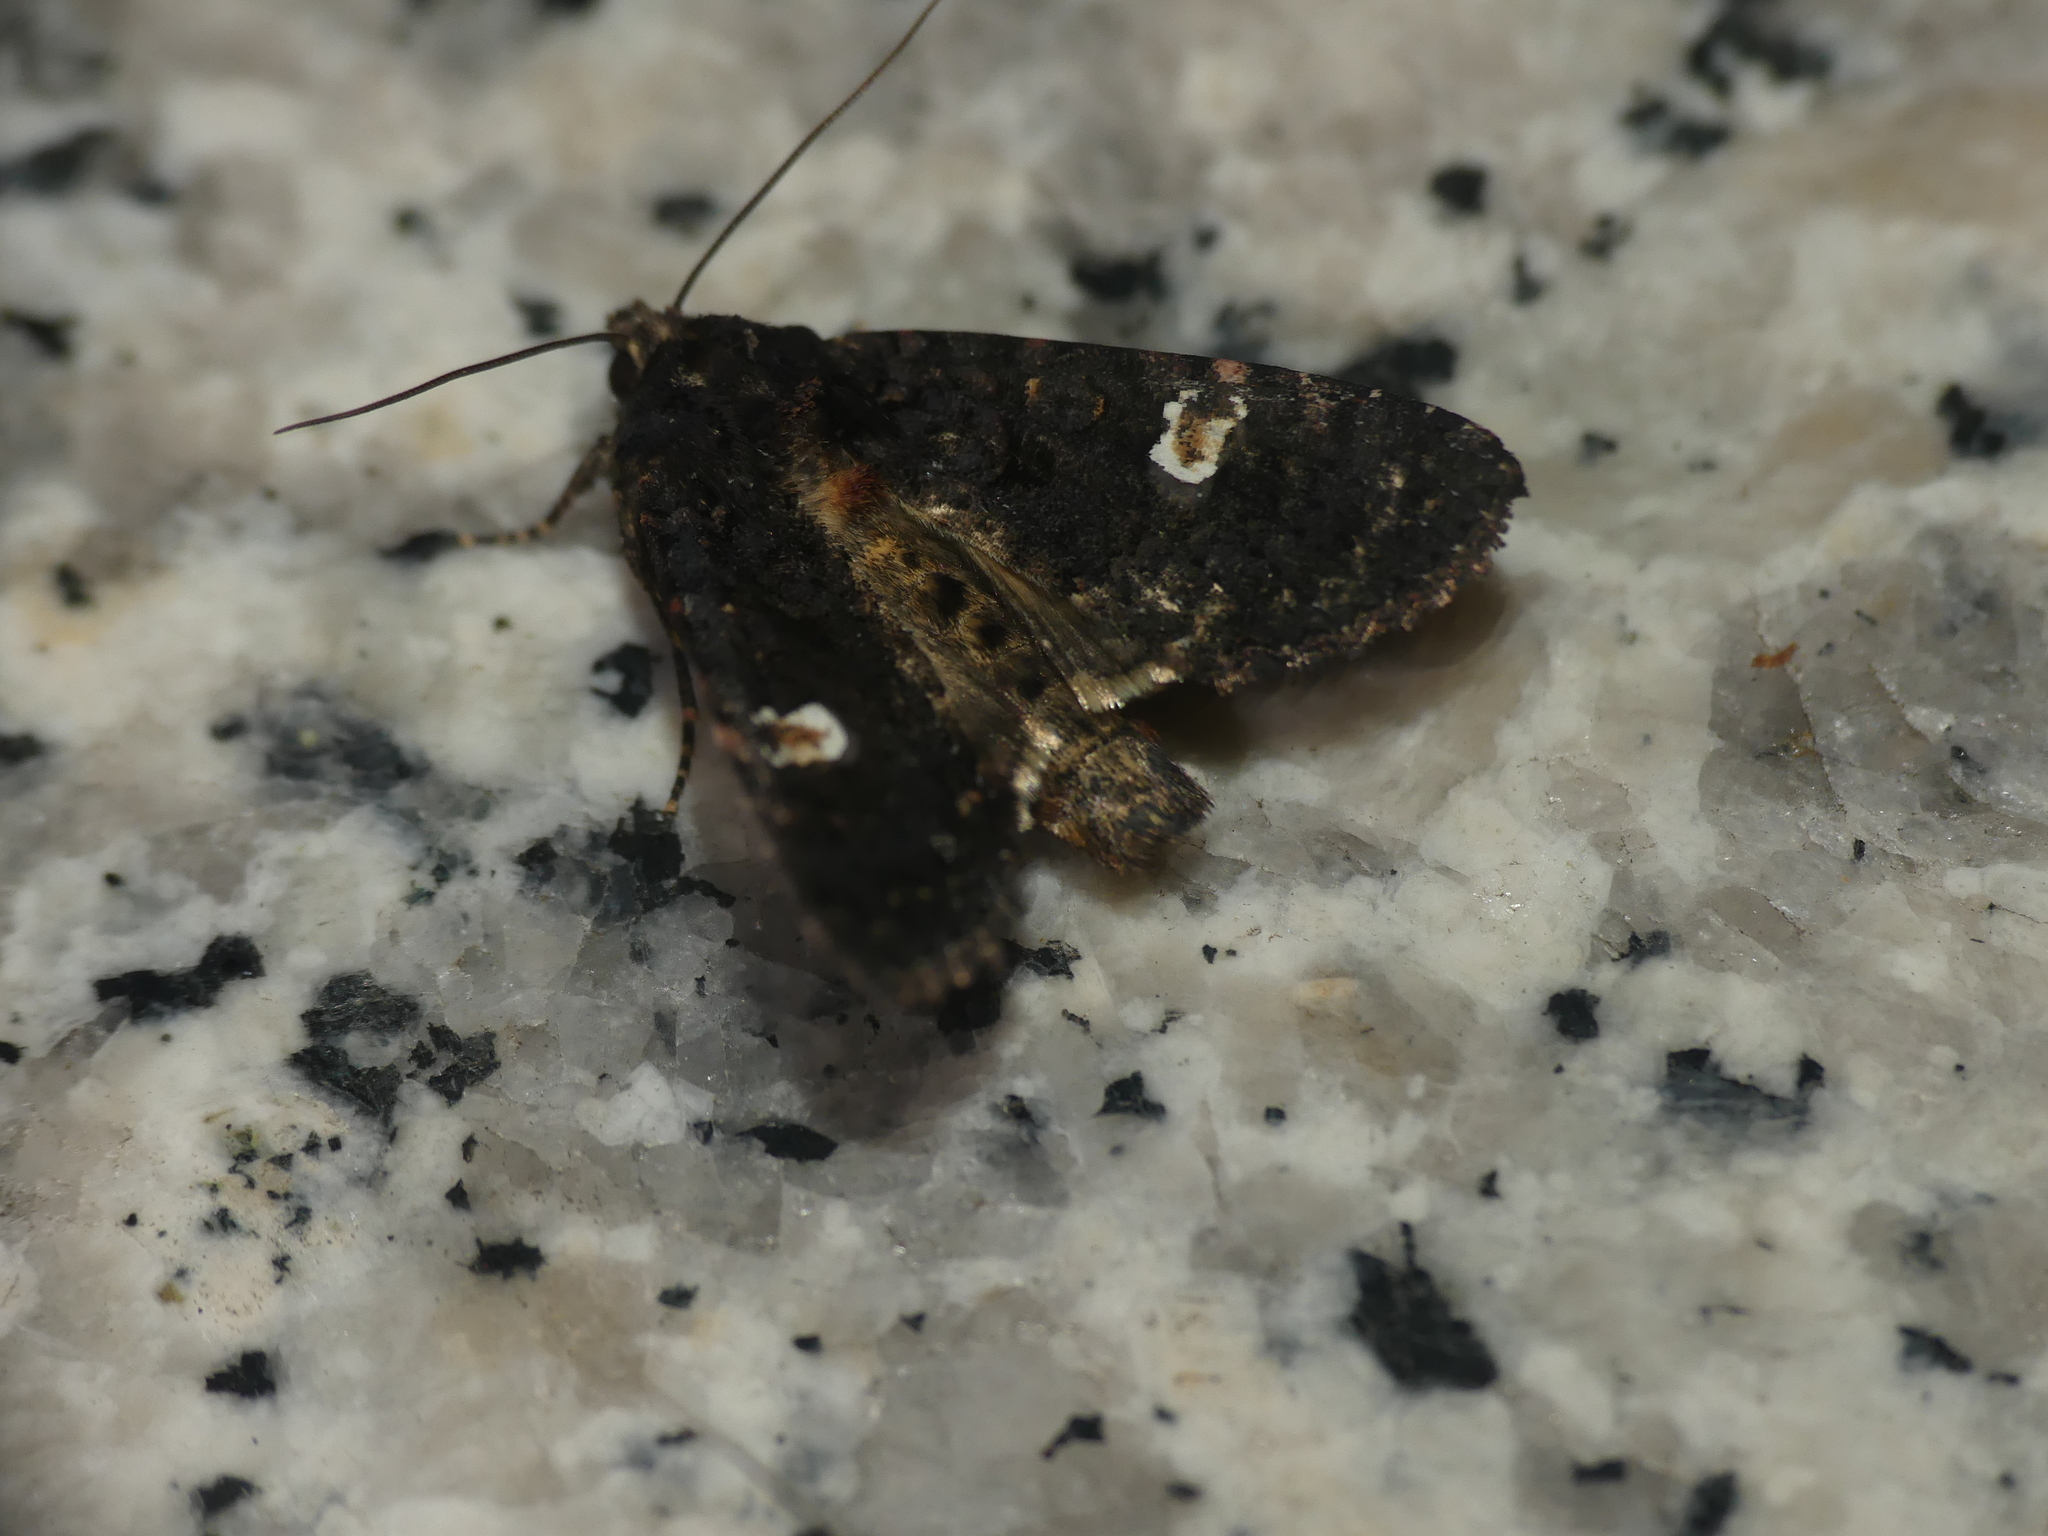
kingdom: Animalia
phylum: Arthropoda
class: Insecta
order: Lepidoptera
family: Noctuidae
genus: Melanchra
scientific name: Melanchra persicariae
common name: Dot moth
